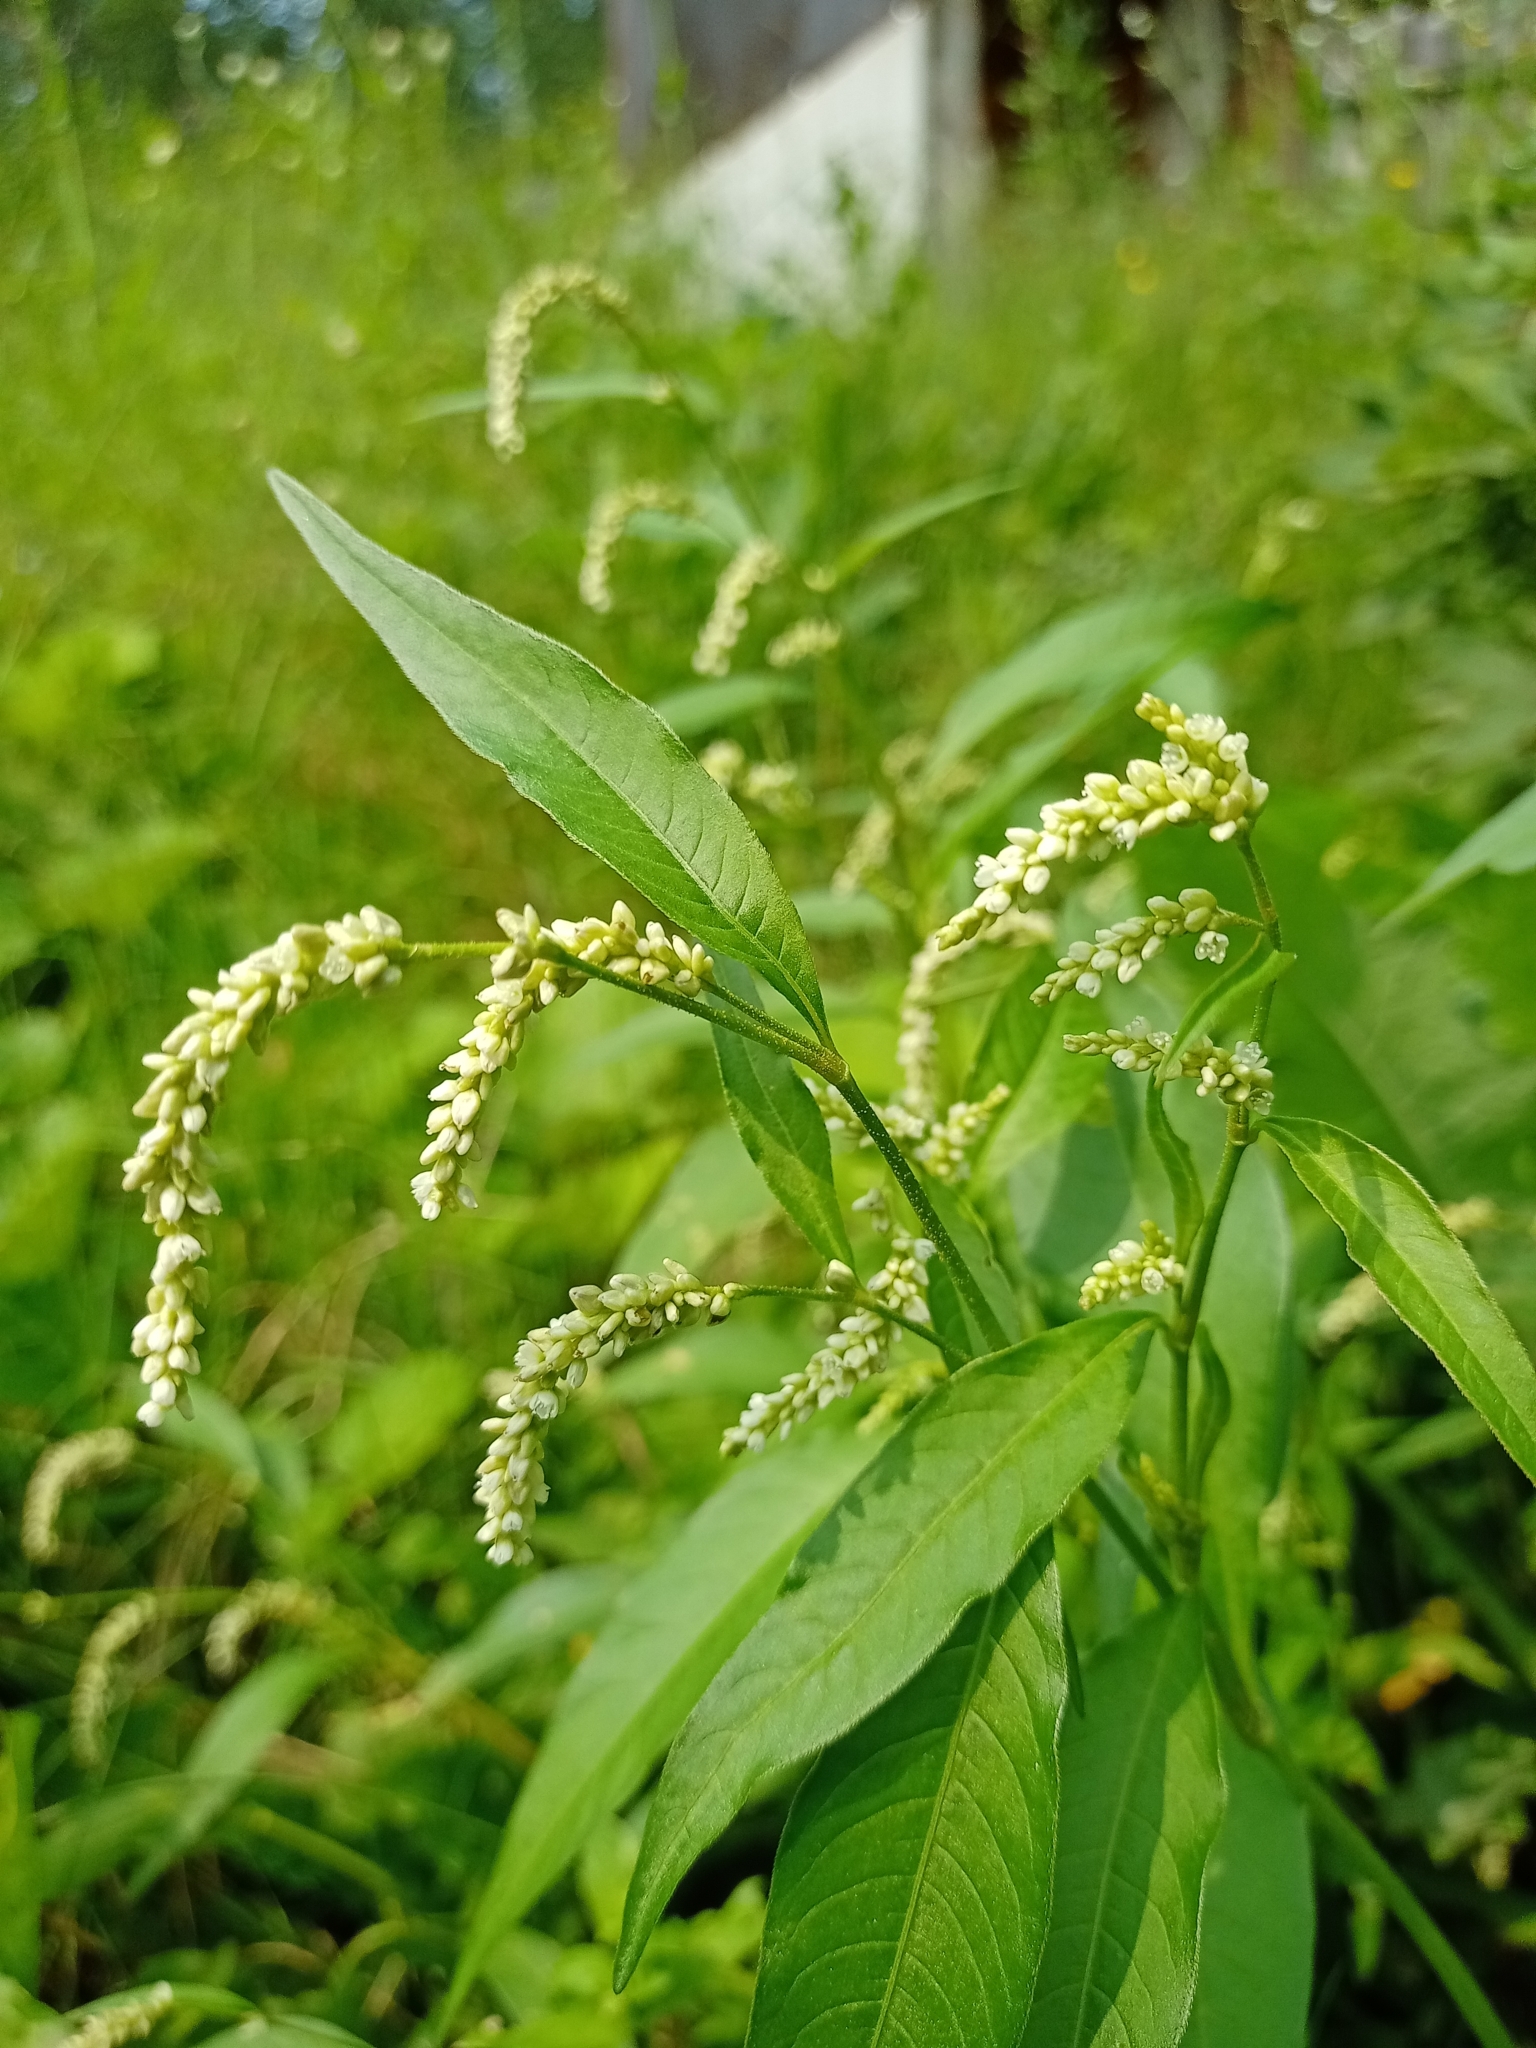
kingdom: Plantae
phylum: Tracheophyta
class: Magnoliopsida
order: Caryophyllales
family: Polygonaceae
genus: Persicaria
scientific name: Persicaria lapathifolia
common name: Curlytop knotweed
